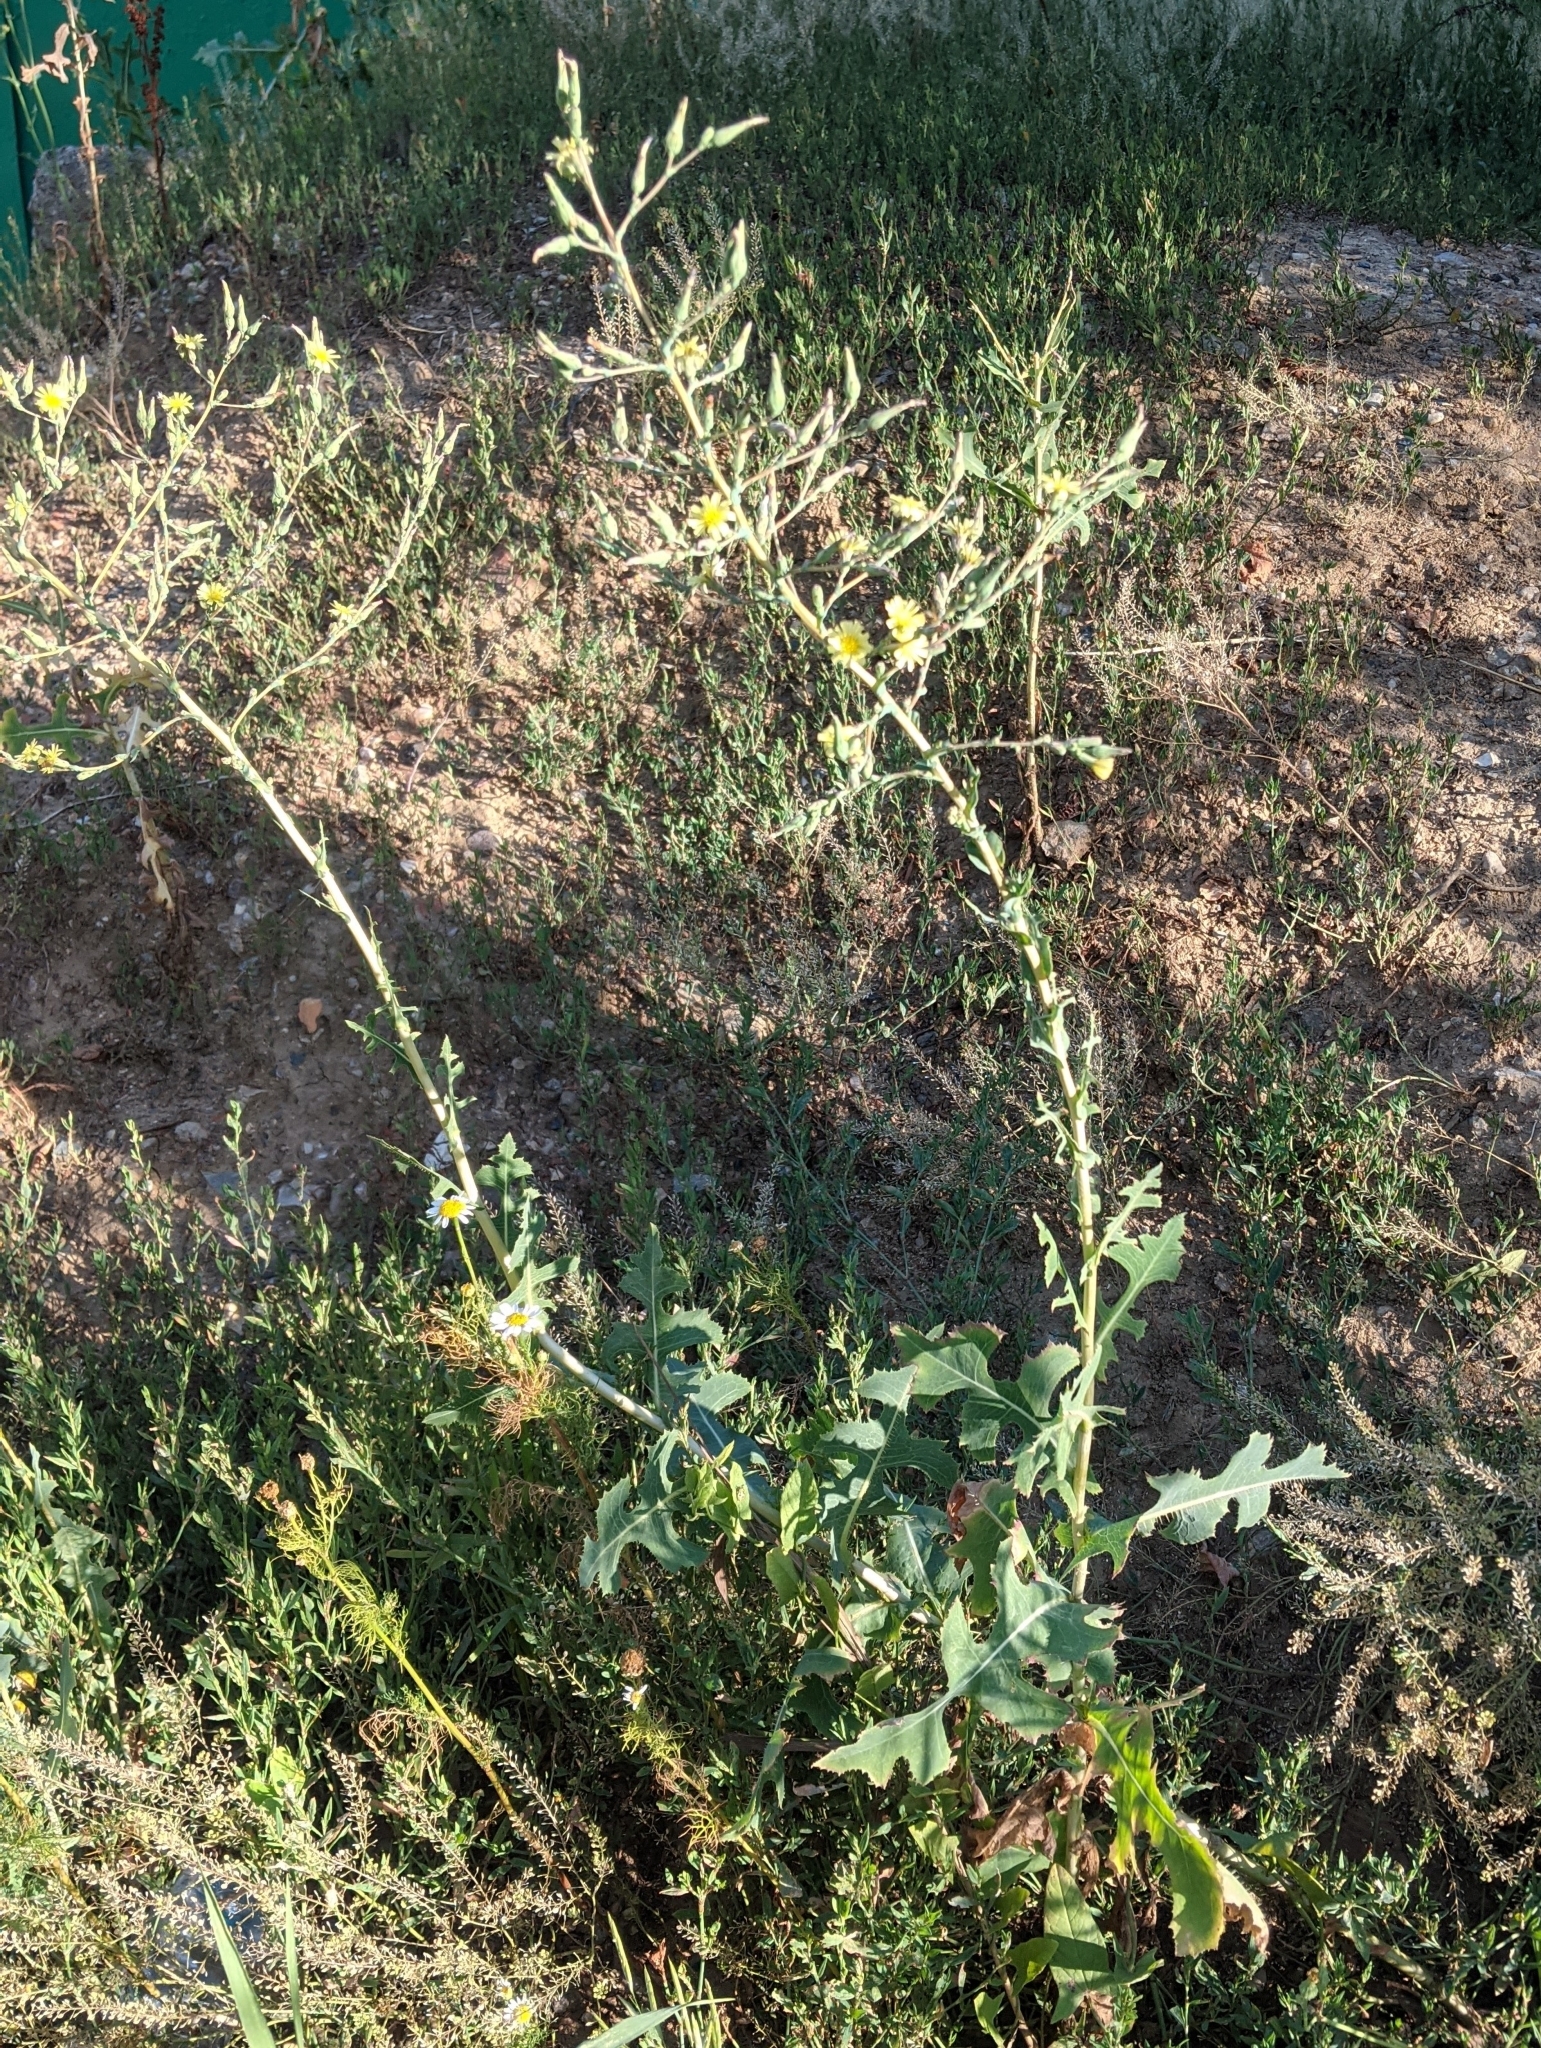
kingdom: Plantae
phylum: Tracheophyta
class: Magnoliopsida
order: Asterales
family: Asteraceae
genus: Lactuca
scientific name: Lactuca serriola
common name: Prickly lettuce
